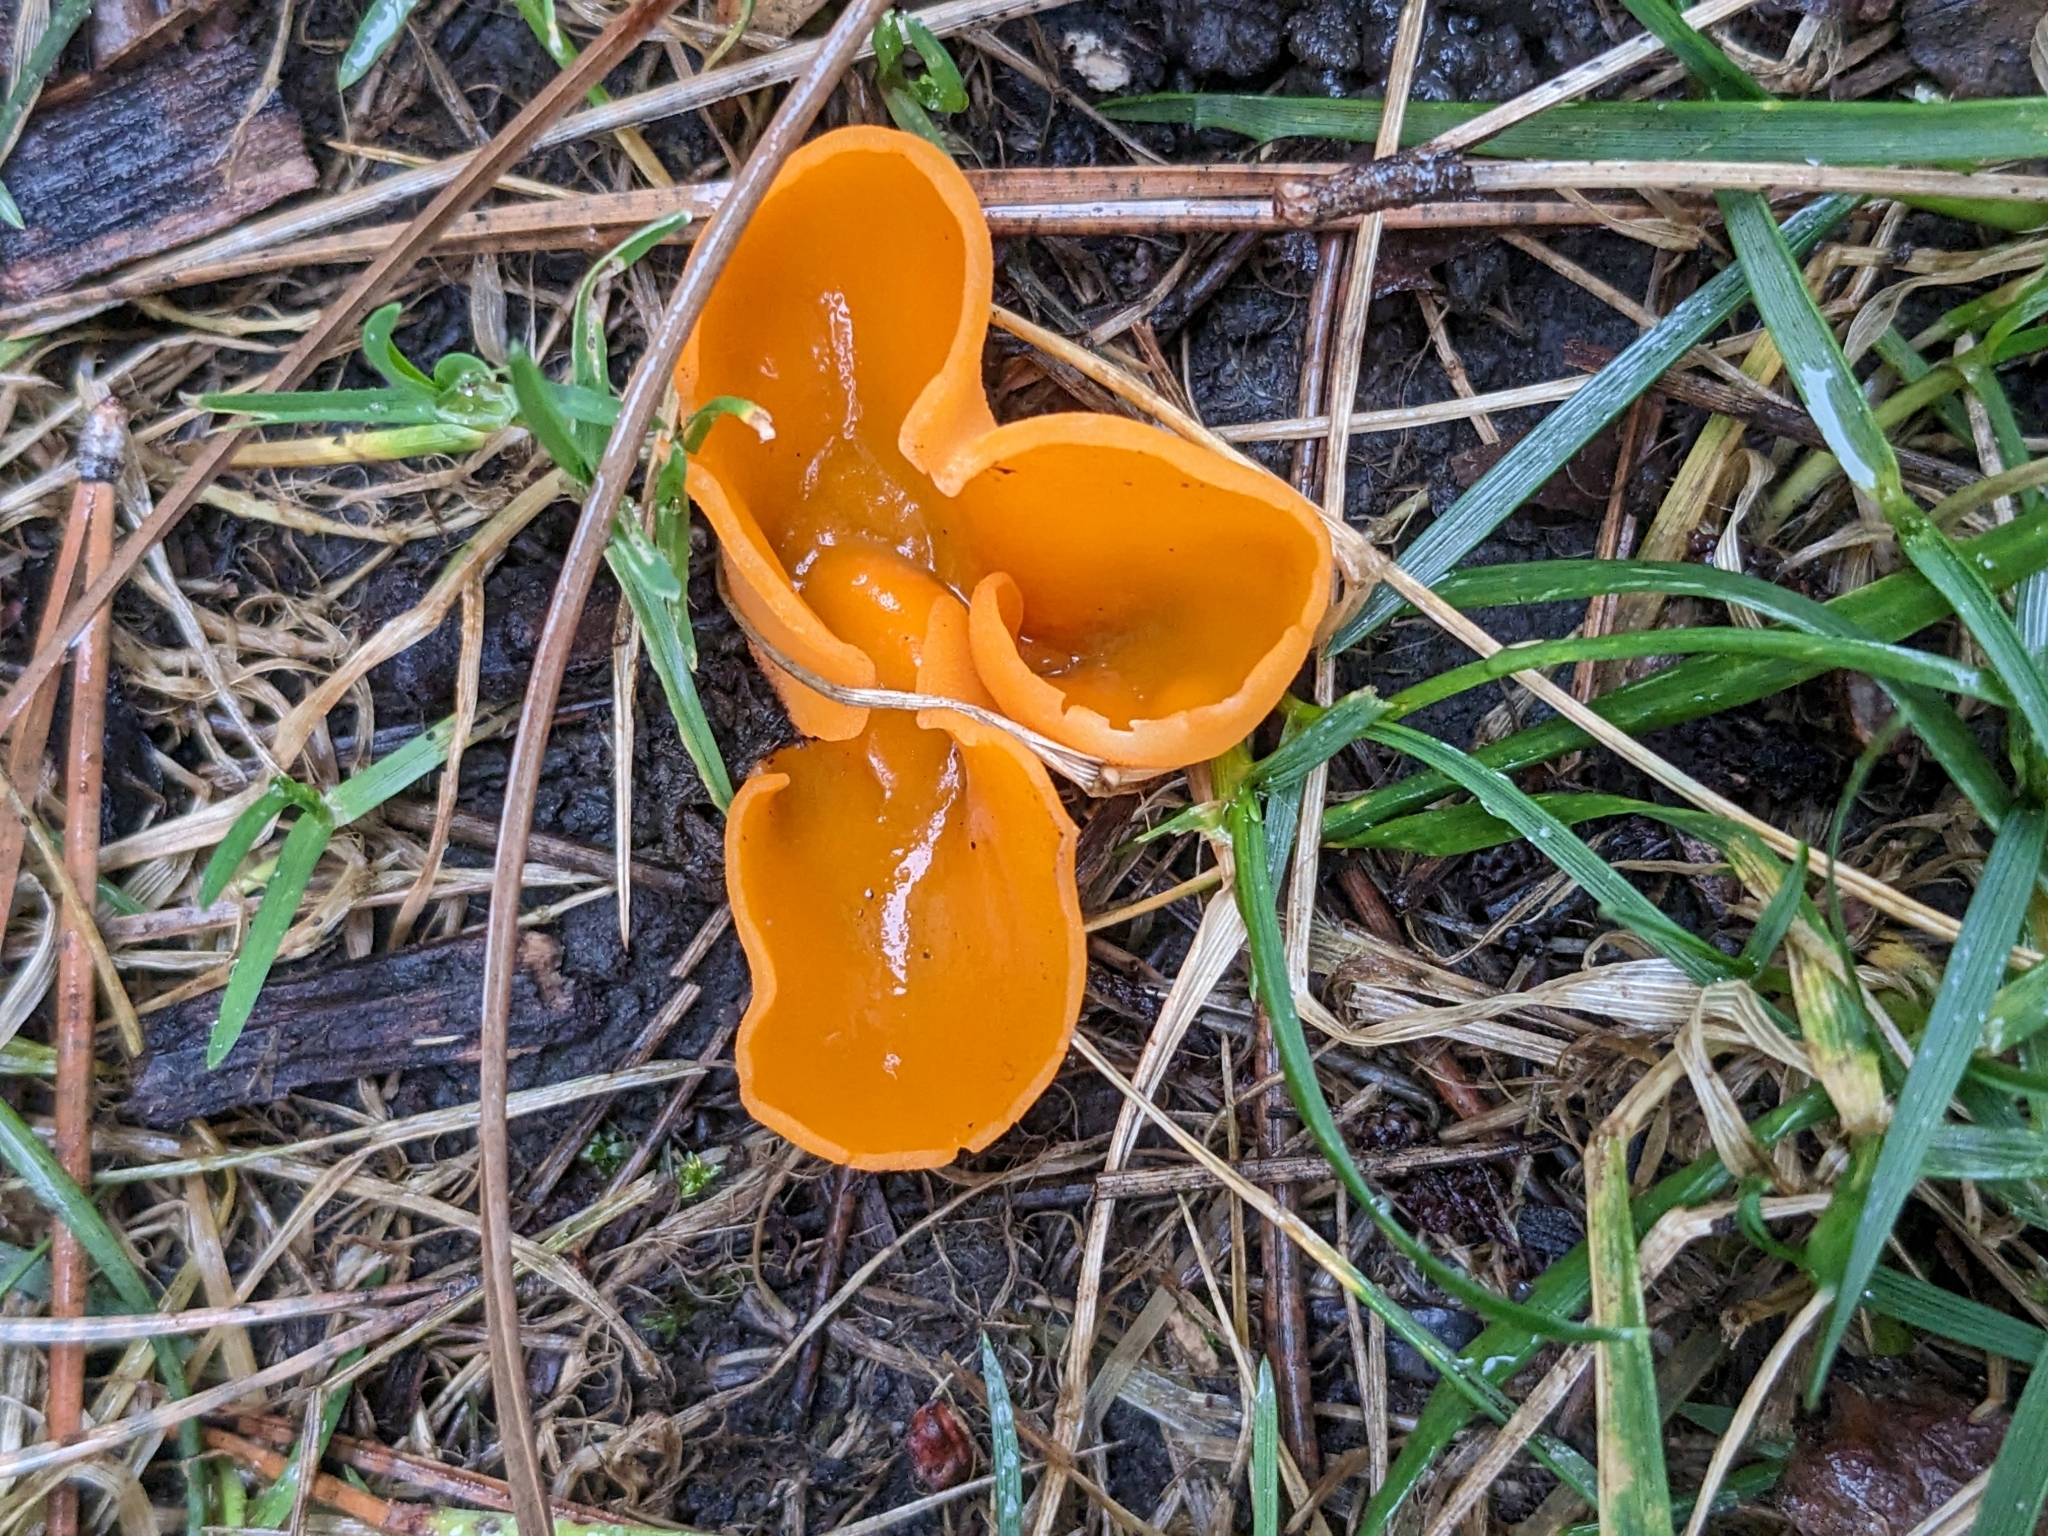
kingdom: Fungi
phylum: Ascomycota
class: Pezizomycetes
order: Pezizales
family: Pyronemataceae
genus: Aleuria
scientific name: Aleuria aurantia
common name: Orange peel fungus
